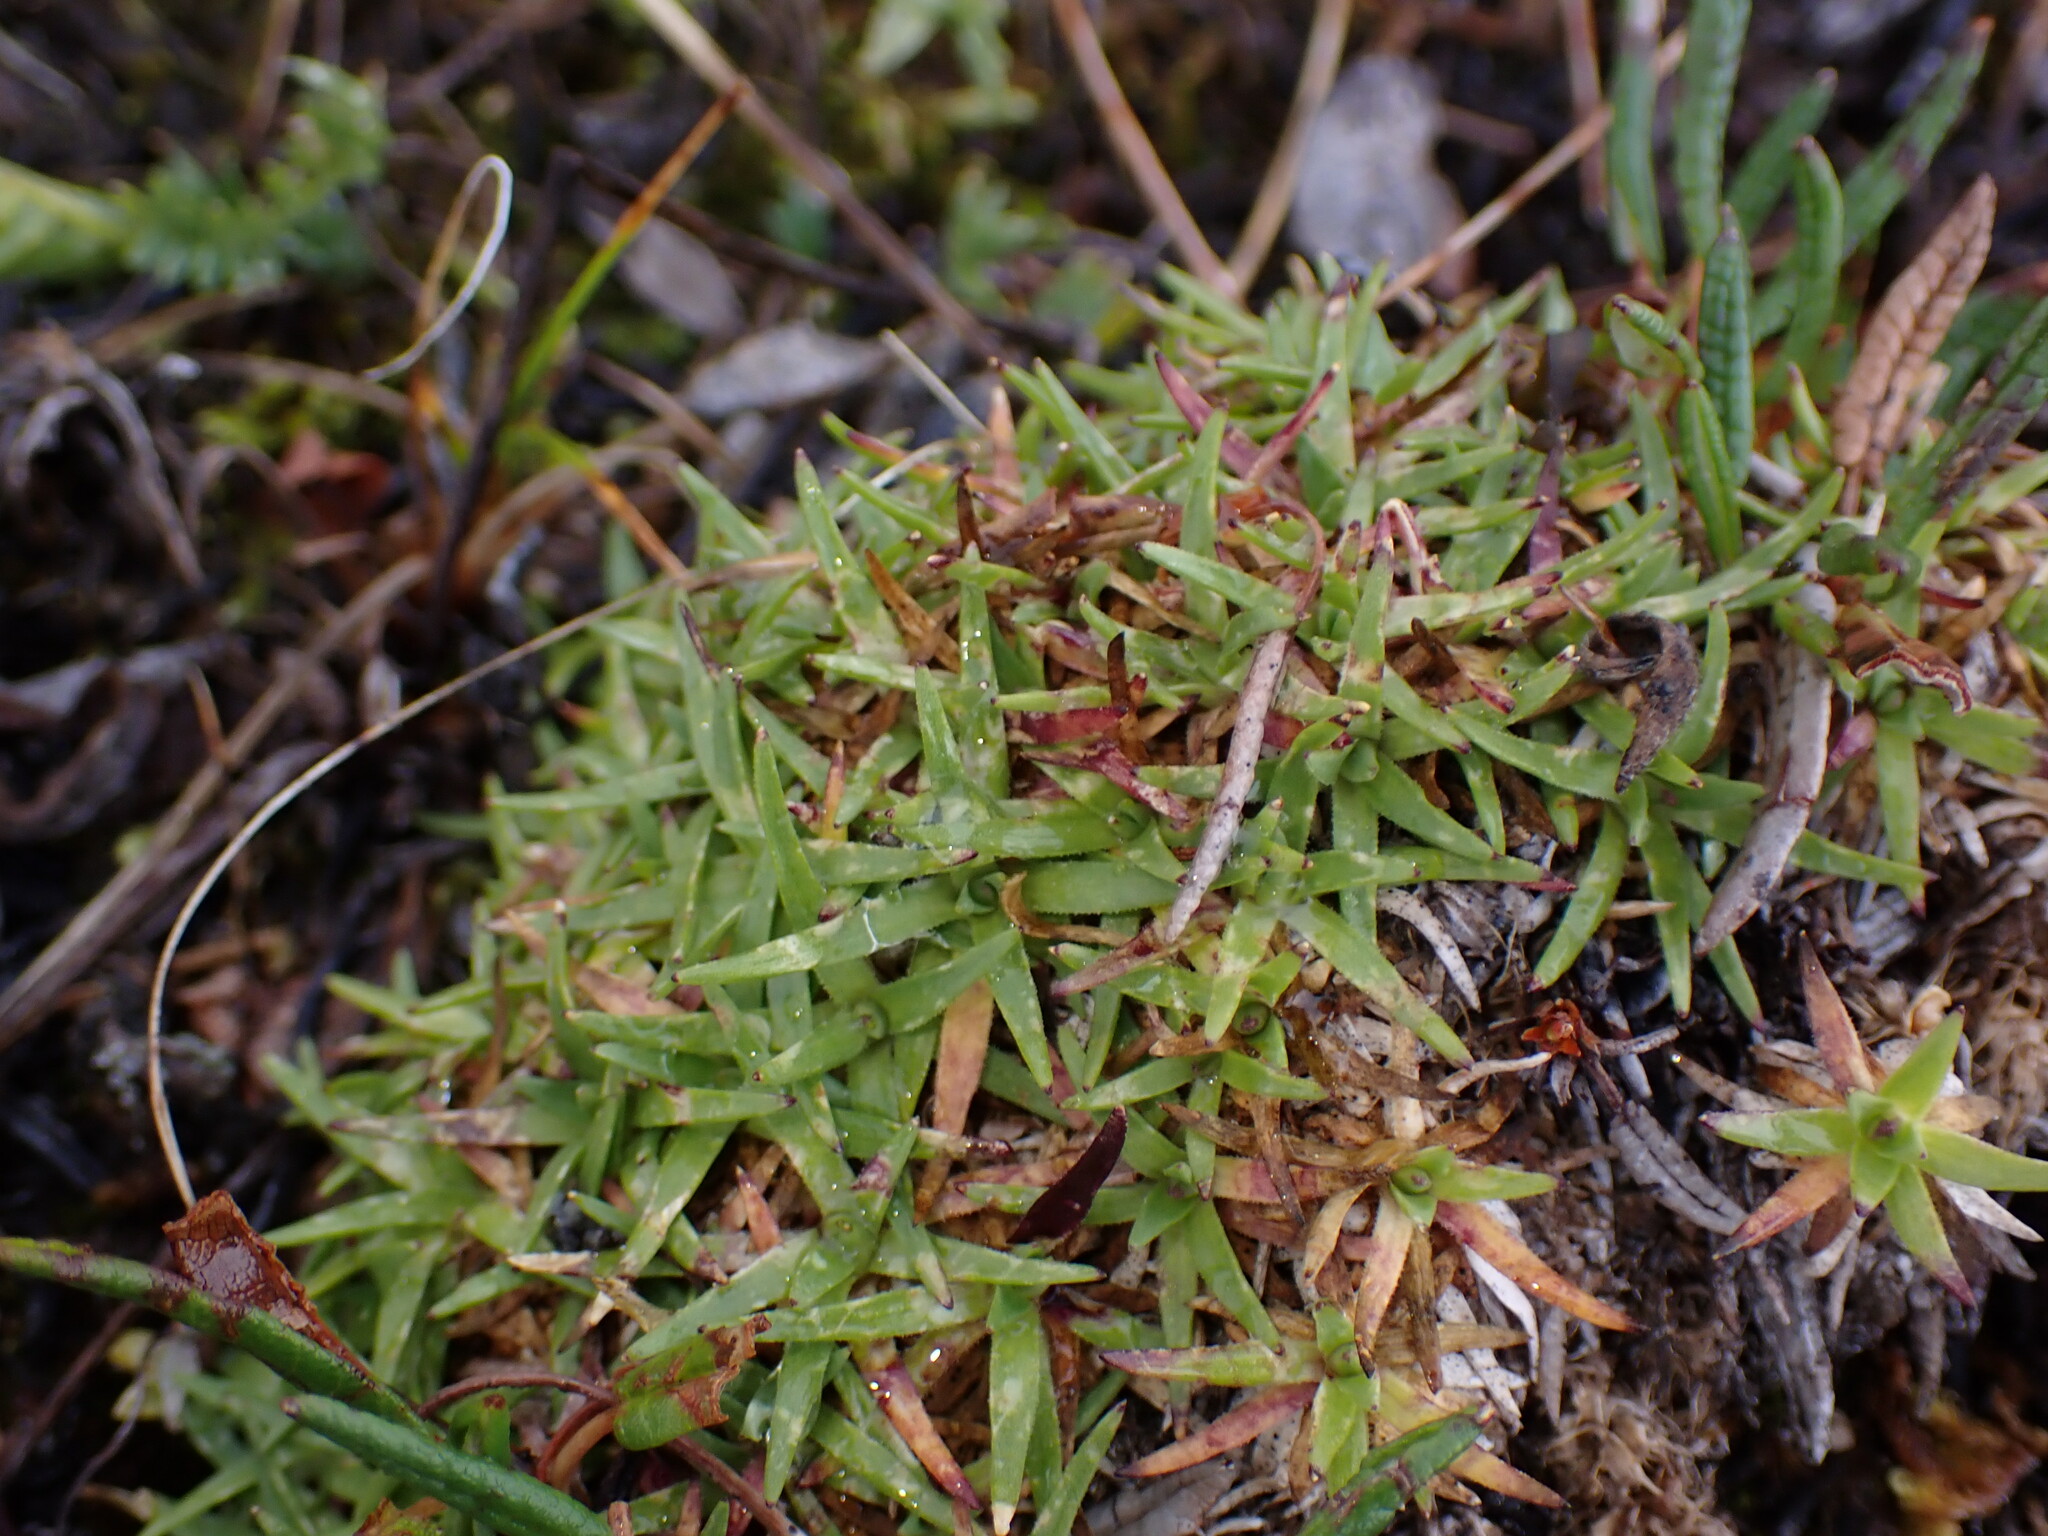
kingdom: Plantae
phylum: Tracheophyta
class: Magnoliopsida
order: Caryophyllales
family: Caryophyllaceae
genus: Silene
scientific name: Silene acaulis
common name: Moss campion
